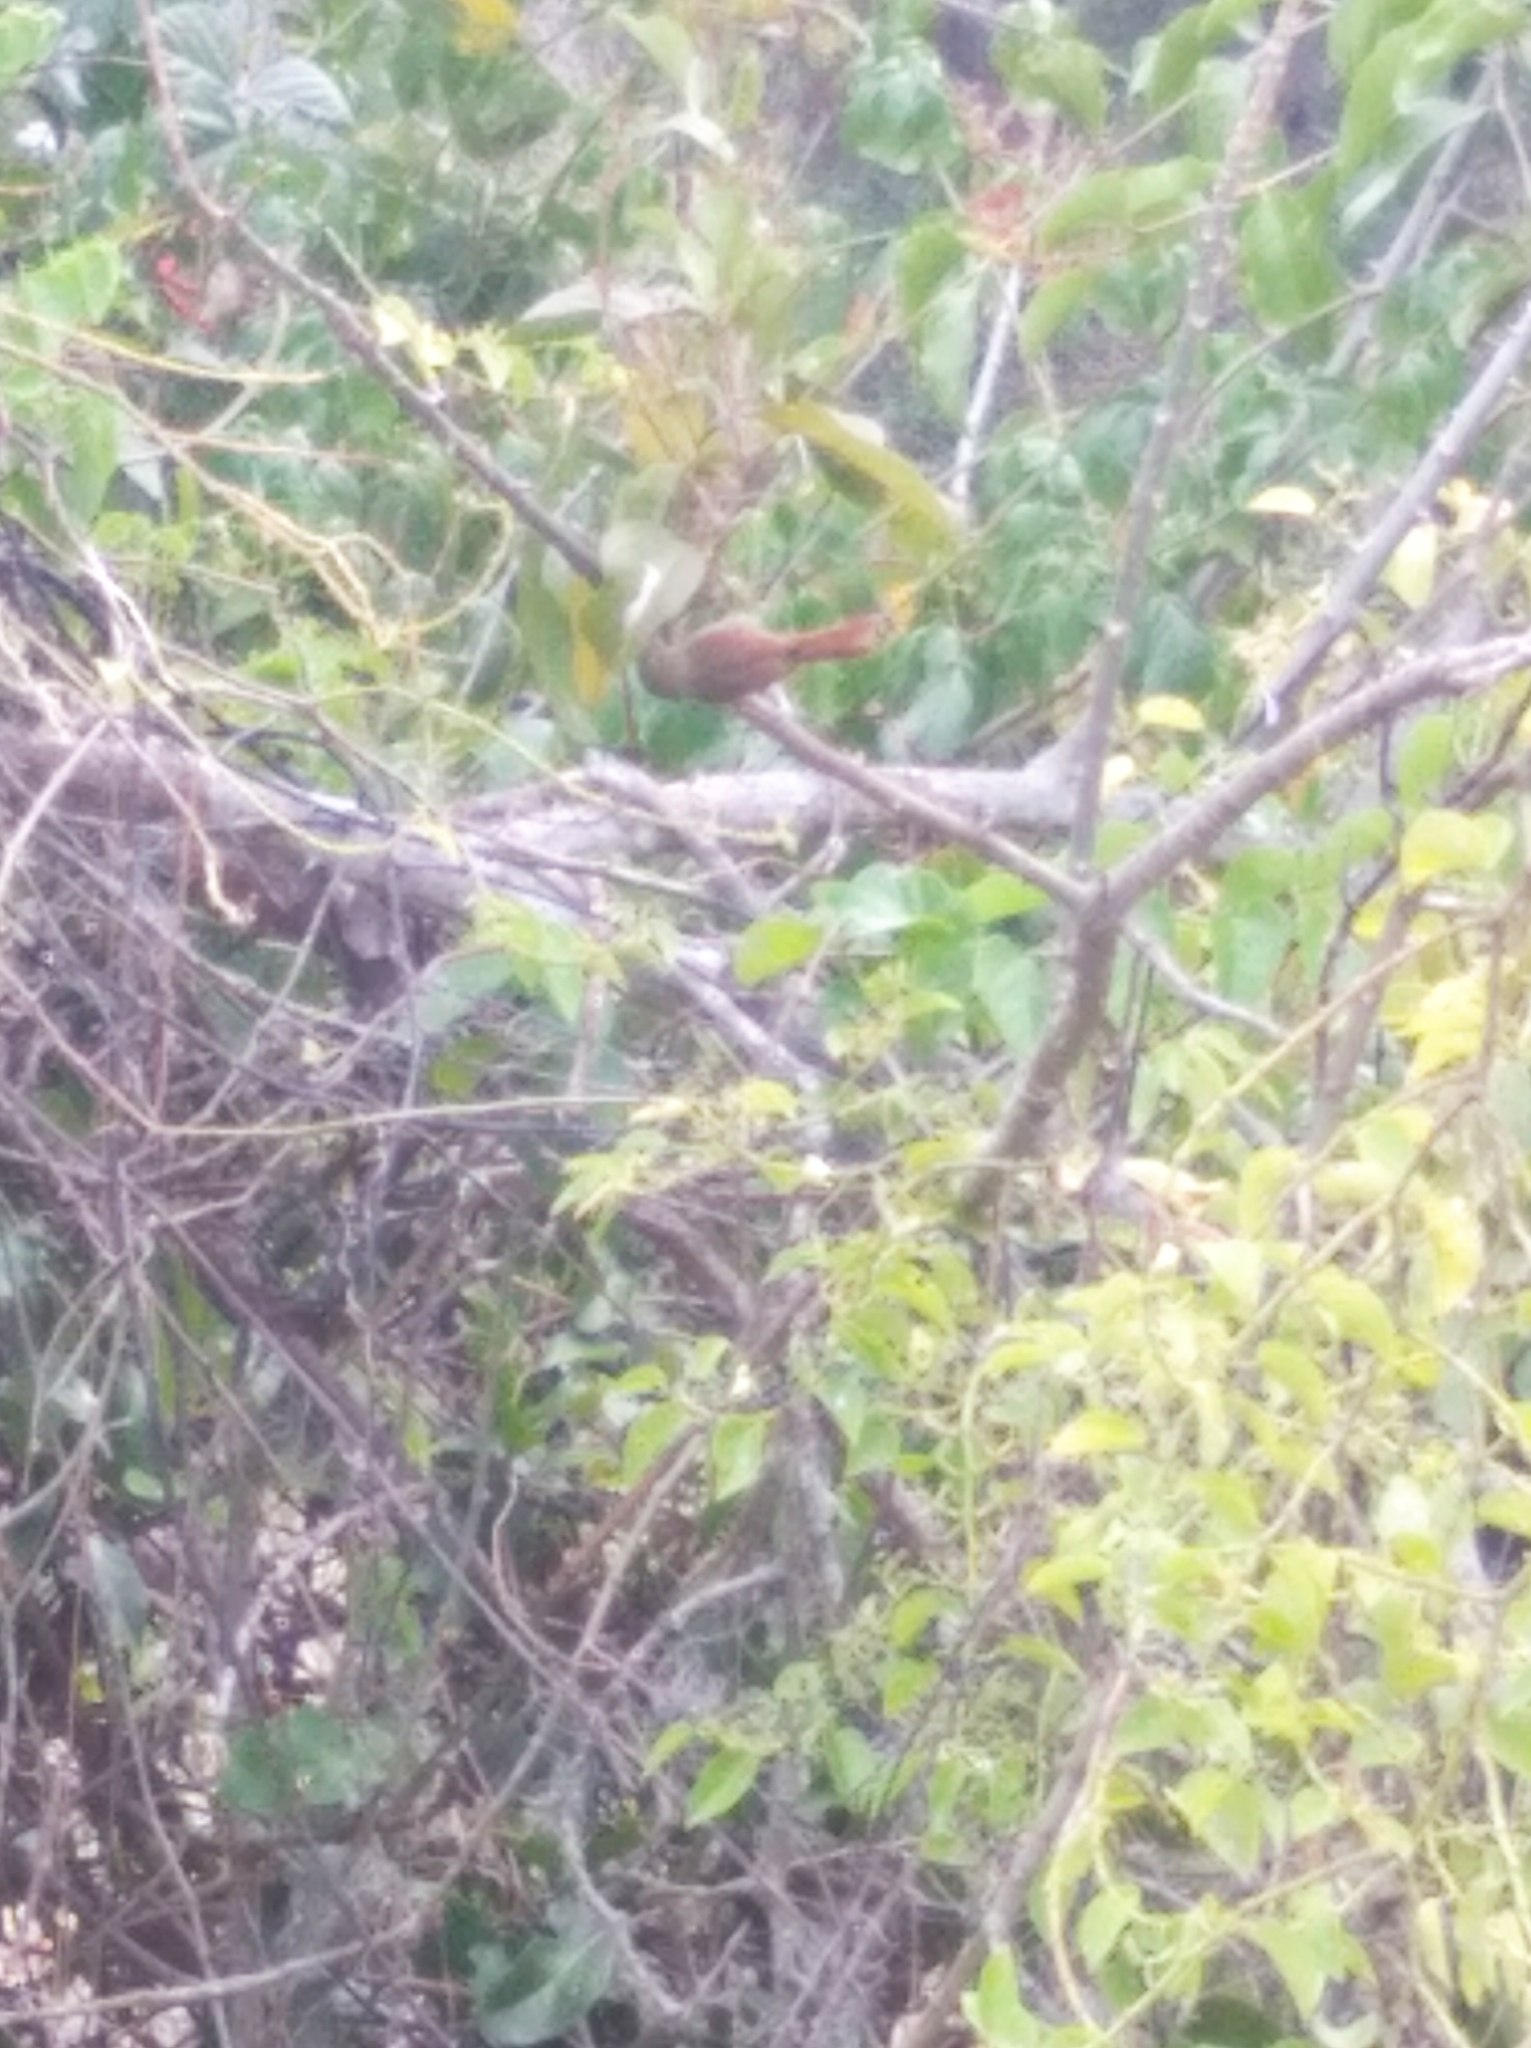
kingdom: Animalia
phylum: Chordata
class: Aves
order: Passeriformes
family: Furnariidae
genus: Cranioleuca
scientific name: Cranioleuca subcristata
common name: Crested spinetail
